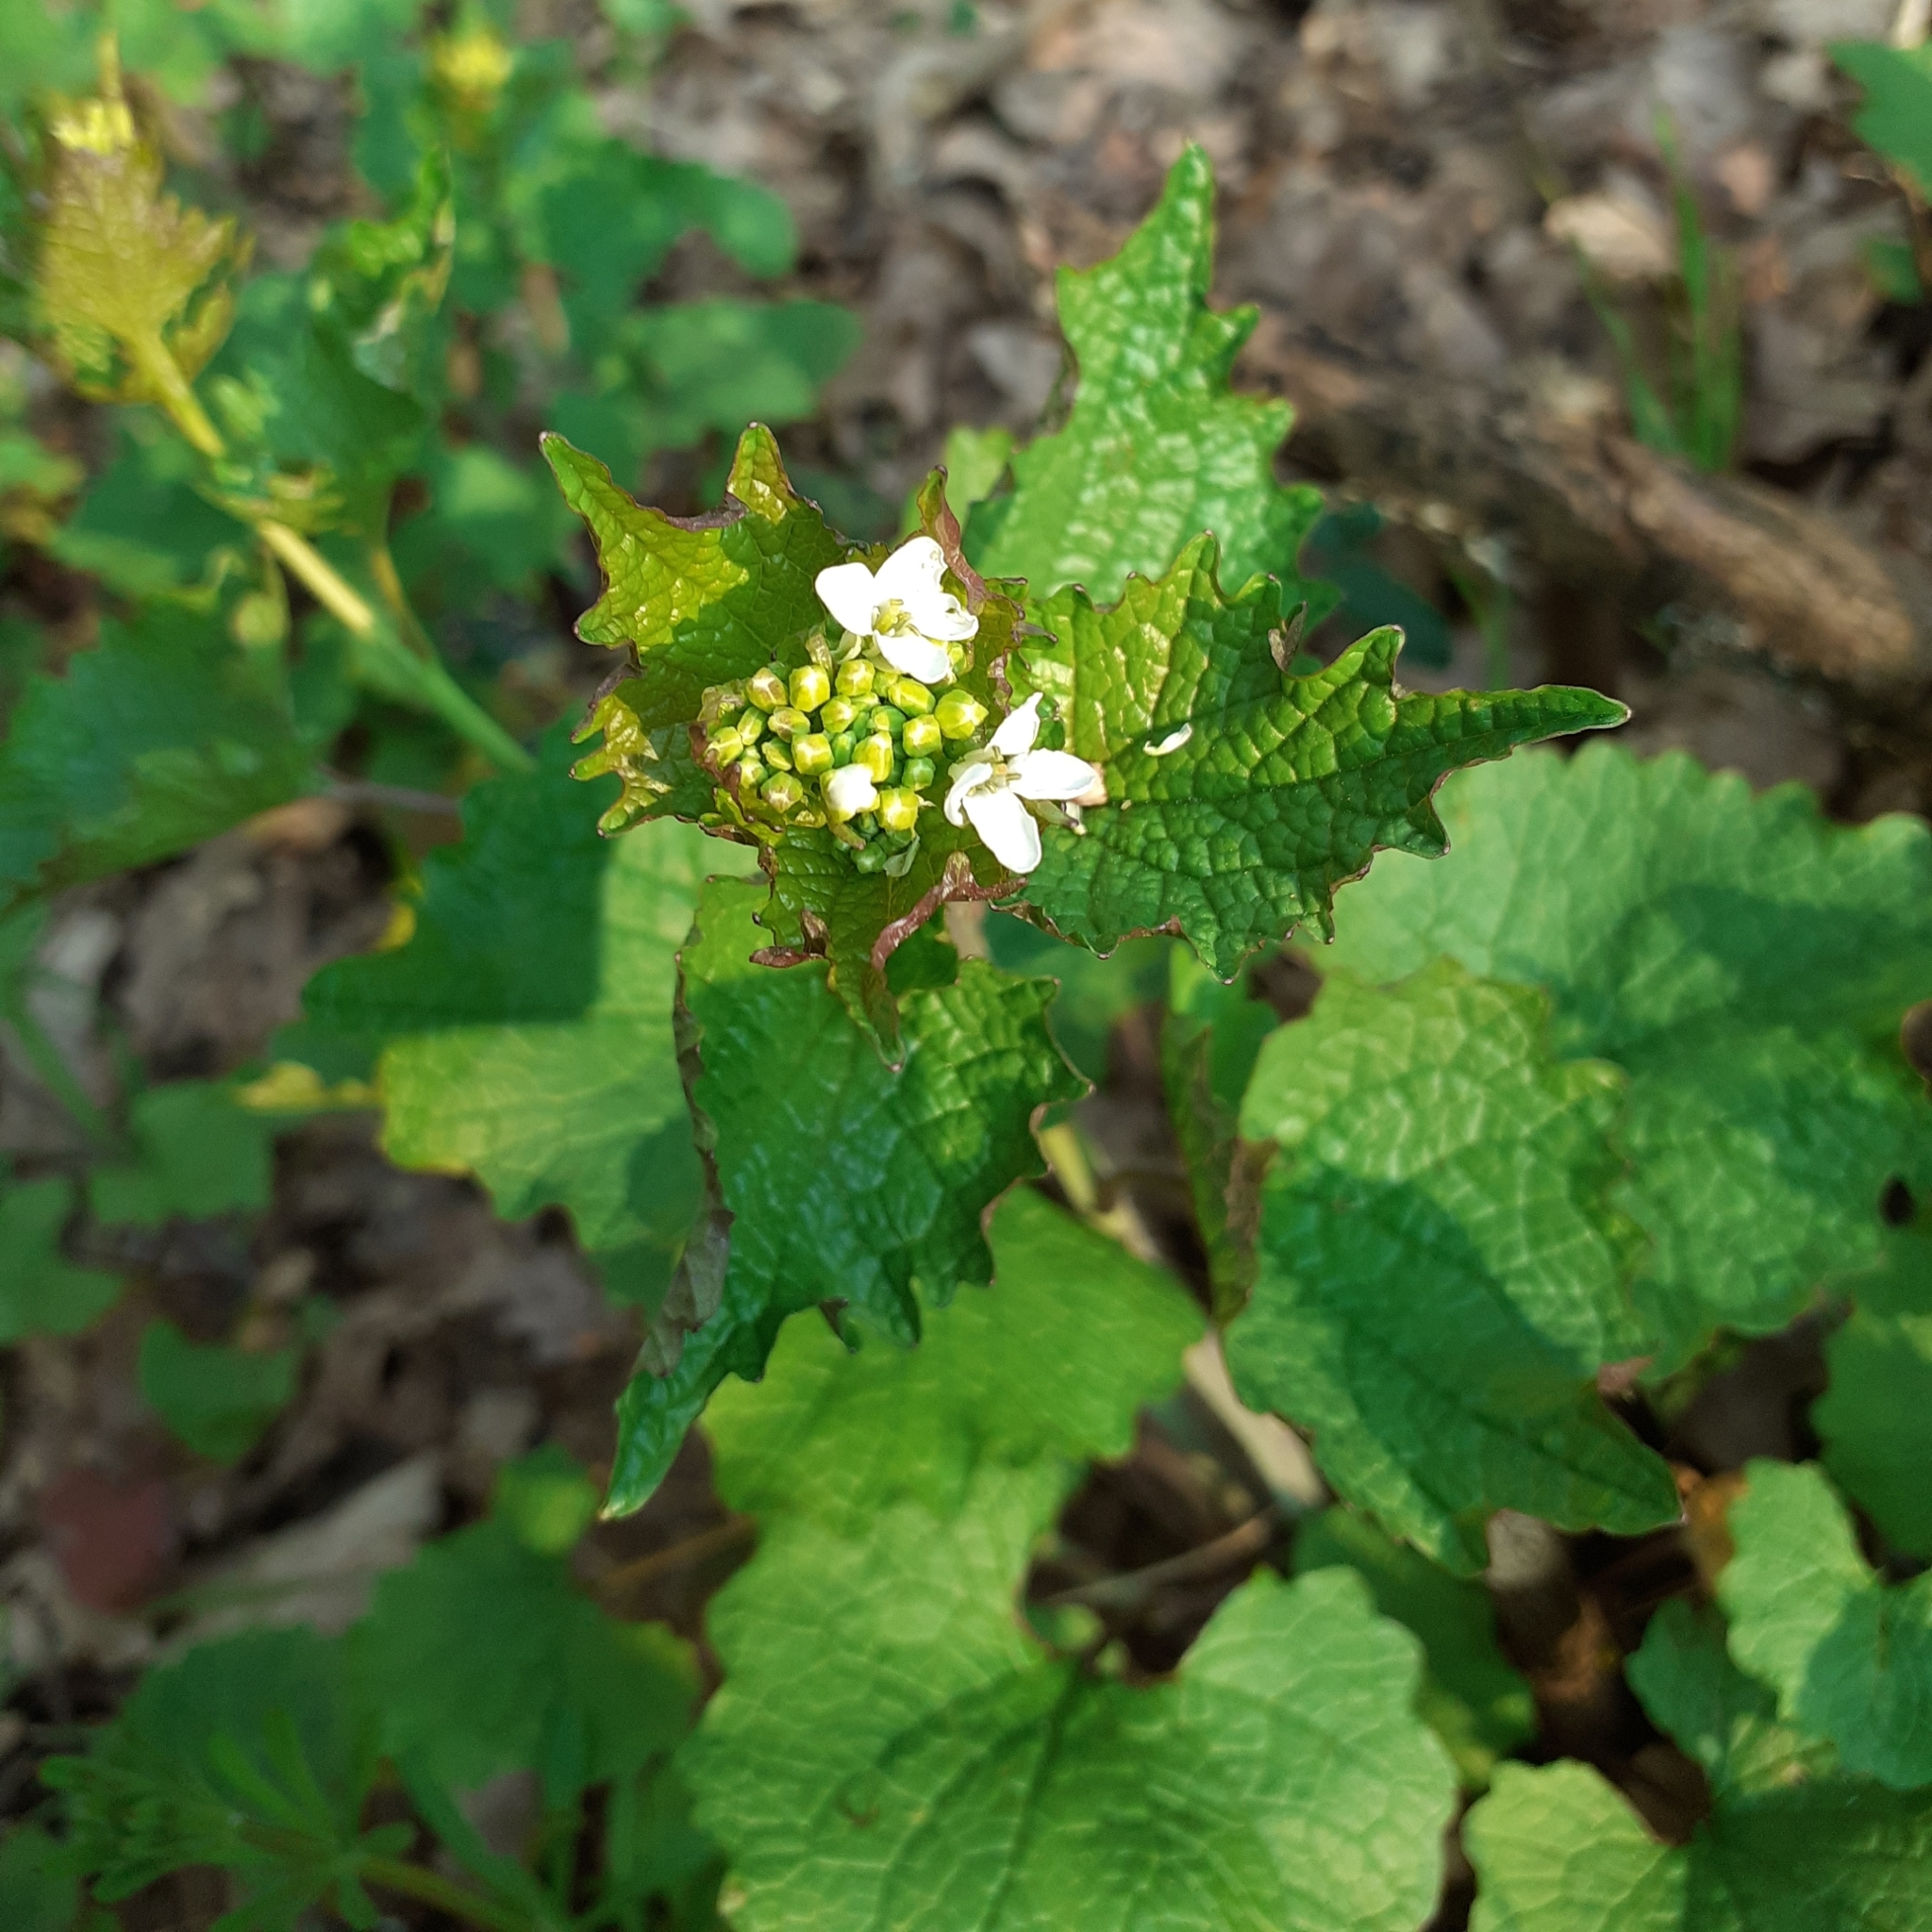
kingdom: Plantae
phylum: Tracheophyta
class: Magnoliopsida
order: Brassicales
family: Brassicaceae
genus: Alliaria
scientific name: Alliaria petiolata
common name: Garlic mustard
